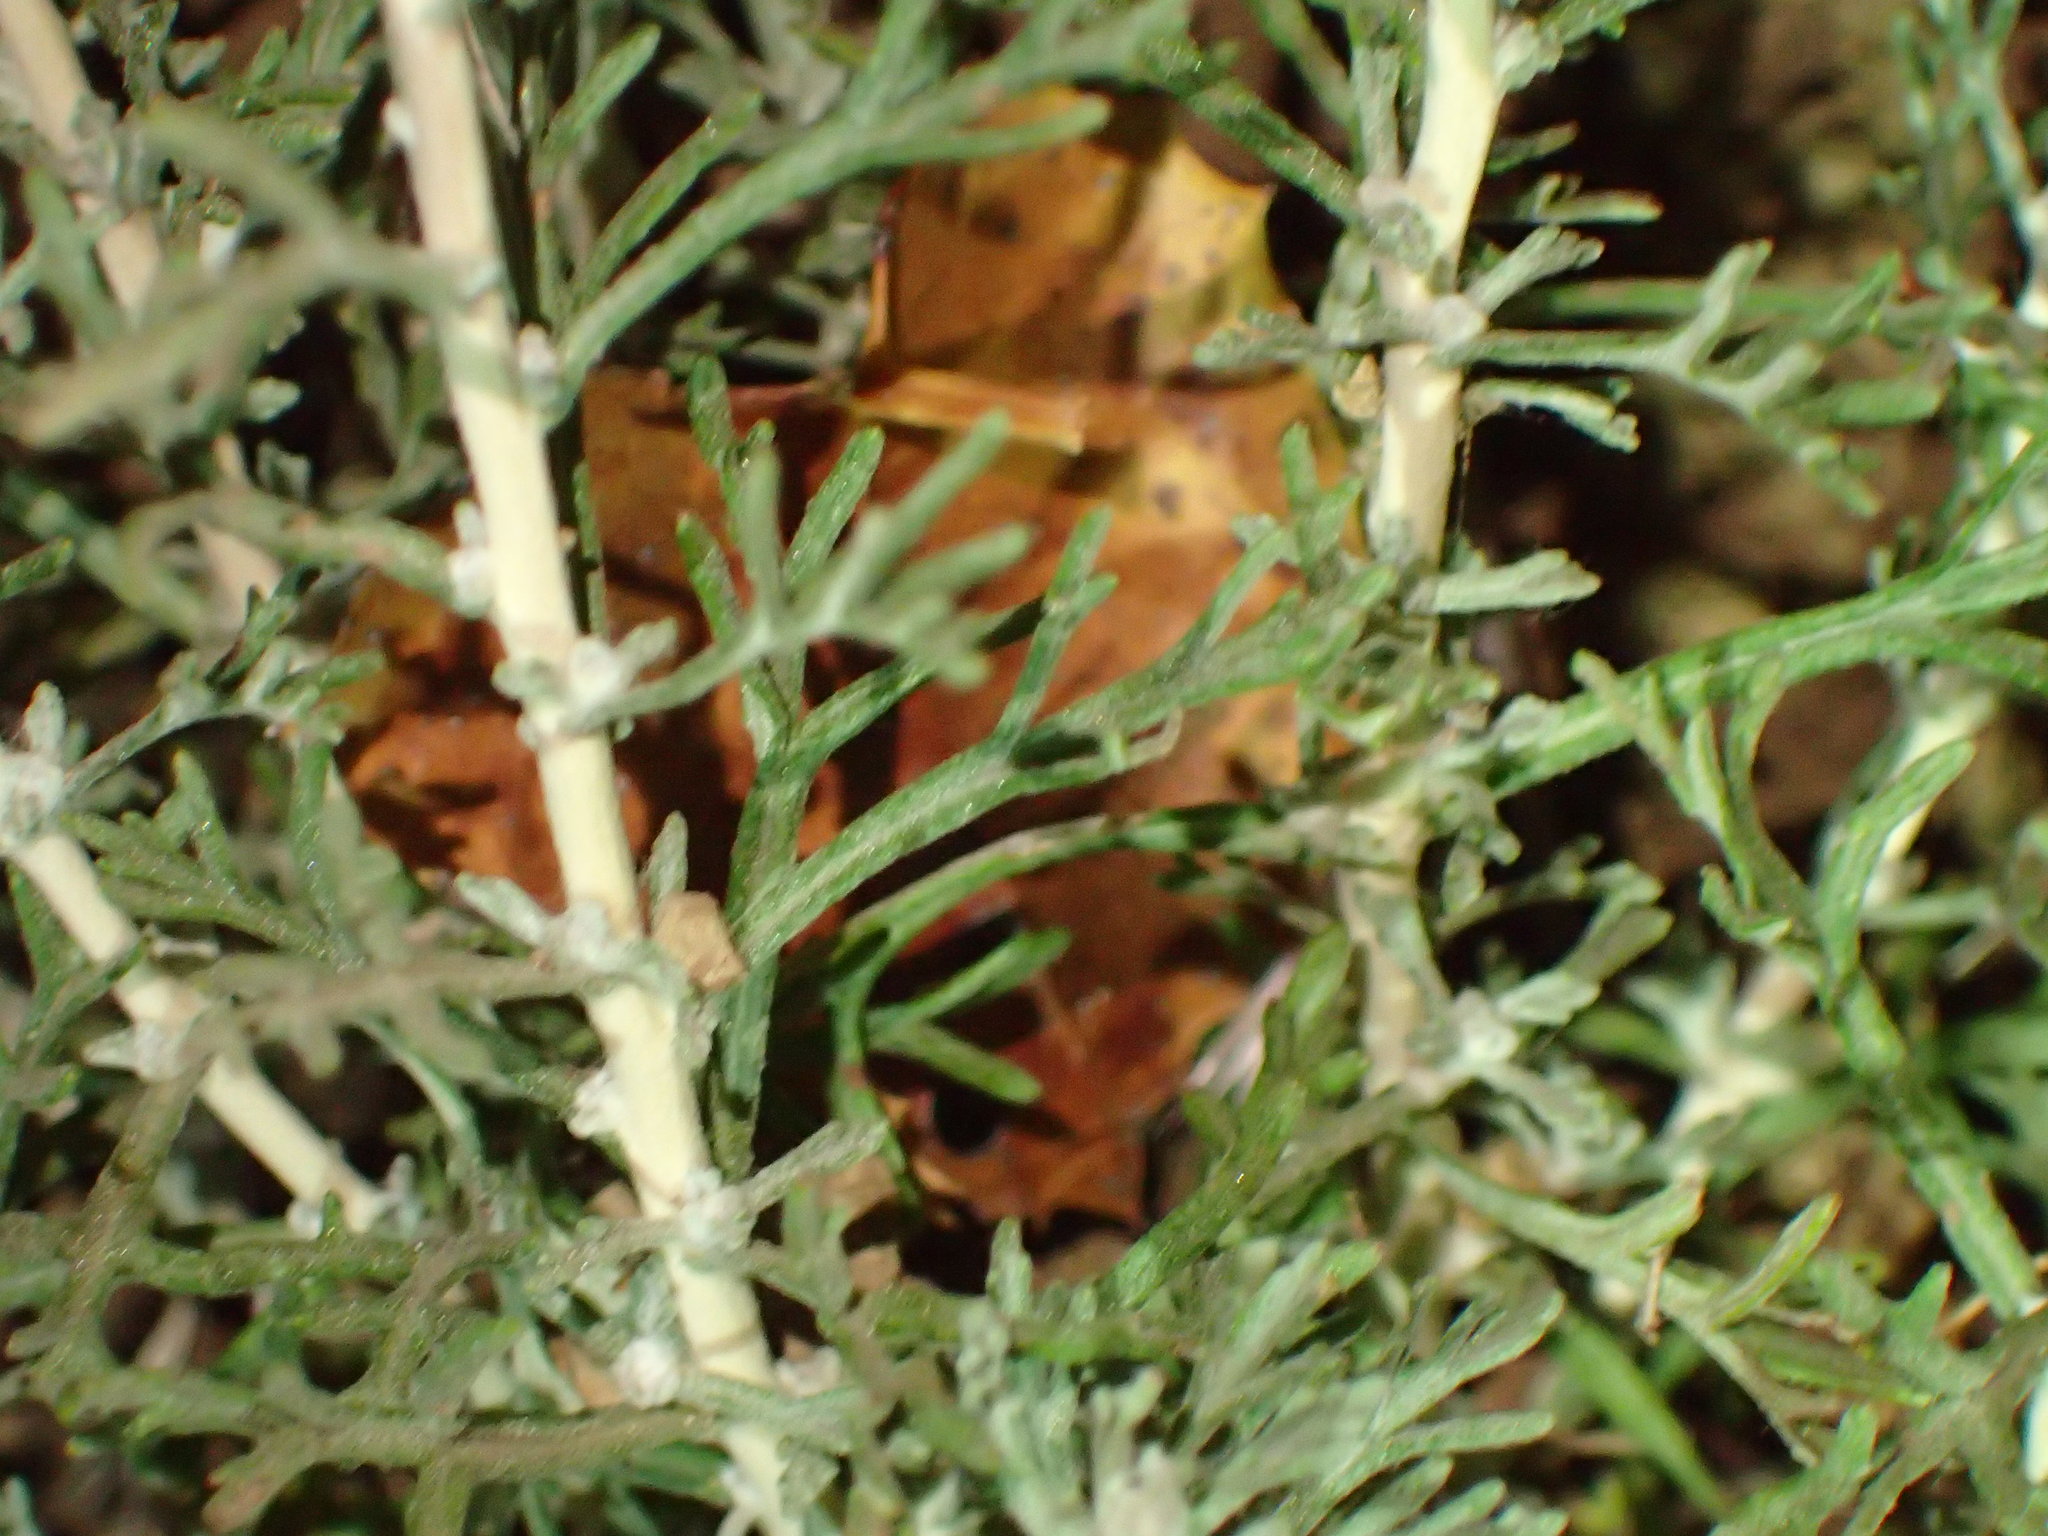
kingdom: Plantae
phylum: Tracheophyta
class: Magnoliopsida
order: Asterales
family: Asteraceae
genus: Eriophyllum
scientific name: Eriophyllum confertiflorum
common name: Golden-yarrow
